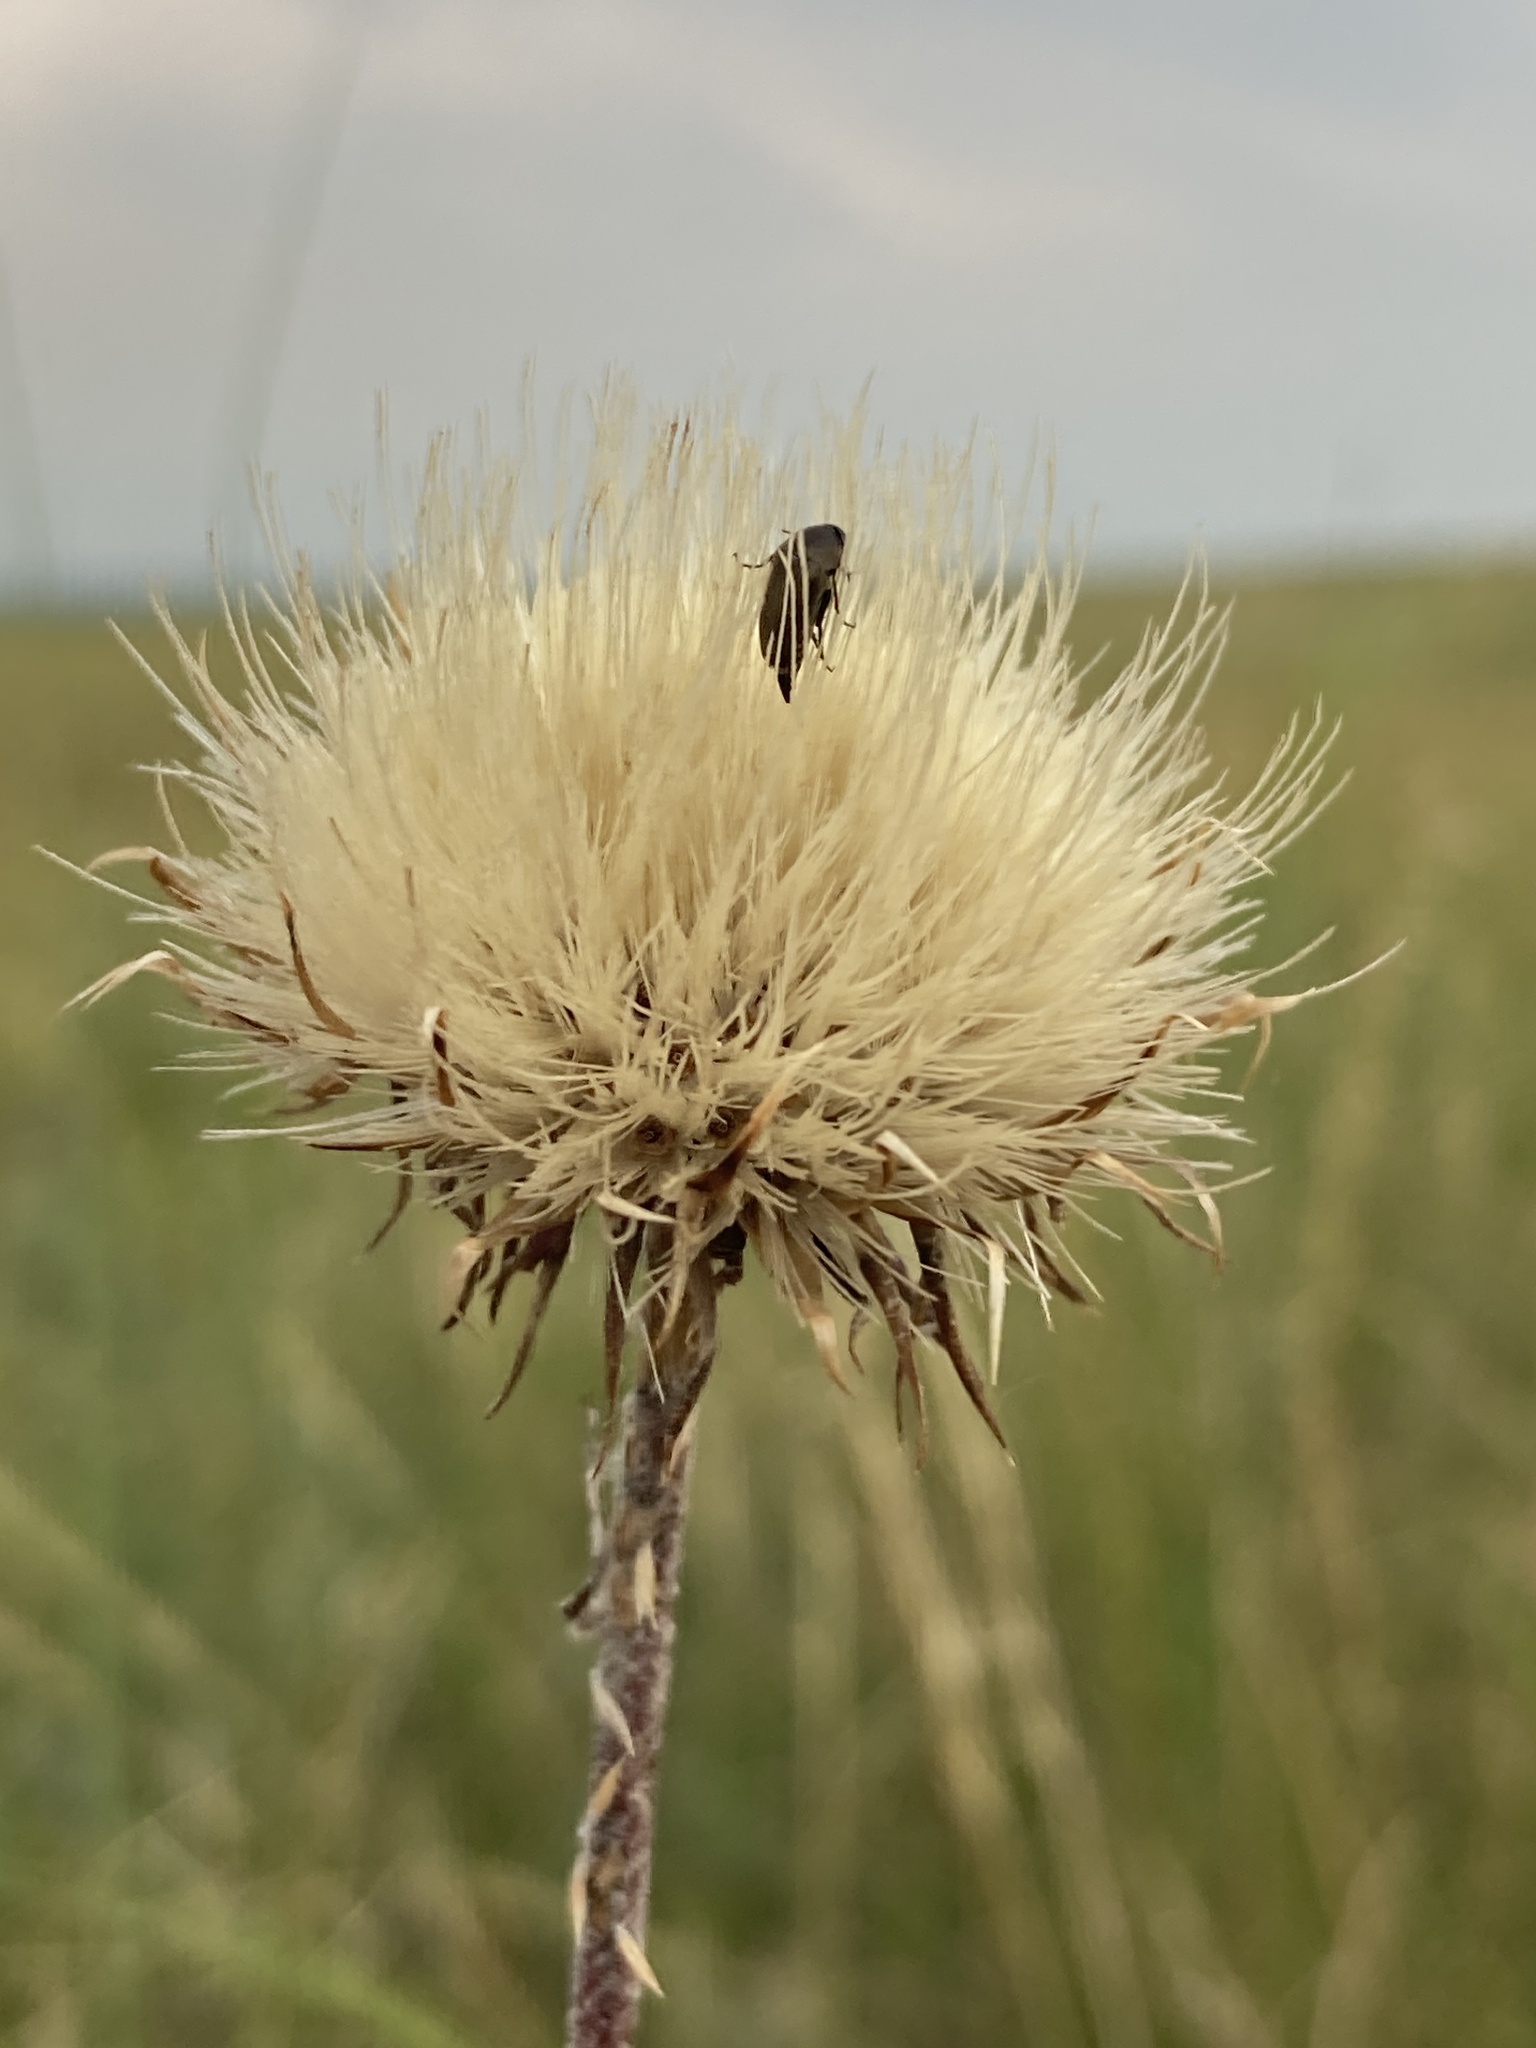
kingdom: Plantae
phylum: Tracheophyta
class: Magnoliopsida
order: Asterales
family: Asteraceae
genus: Jurinea
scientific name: Jurinea arachnoidea
